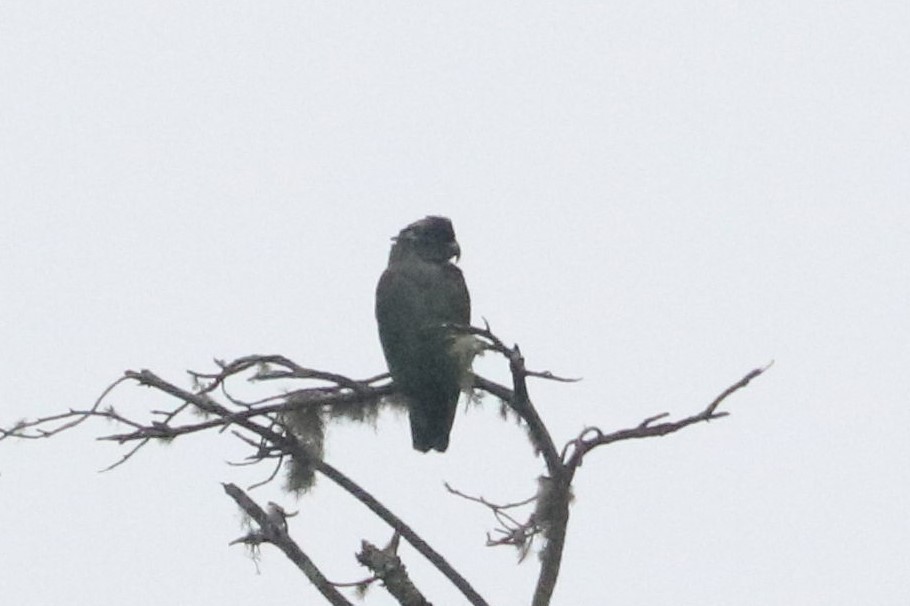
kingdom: Animalia
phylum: Chordata
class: Aves
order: Psittaciformes
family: Psittacidae
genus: Pionus
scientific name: Pionus sordidus
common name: Red-billed parrot
